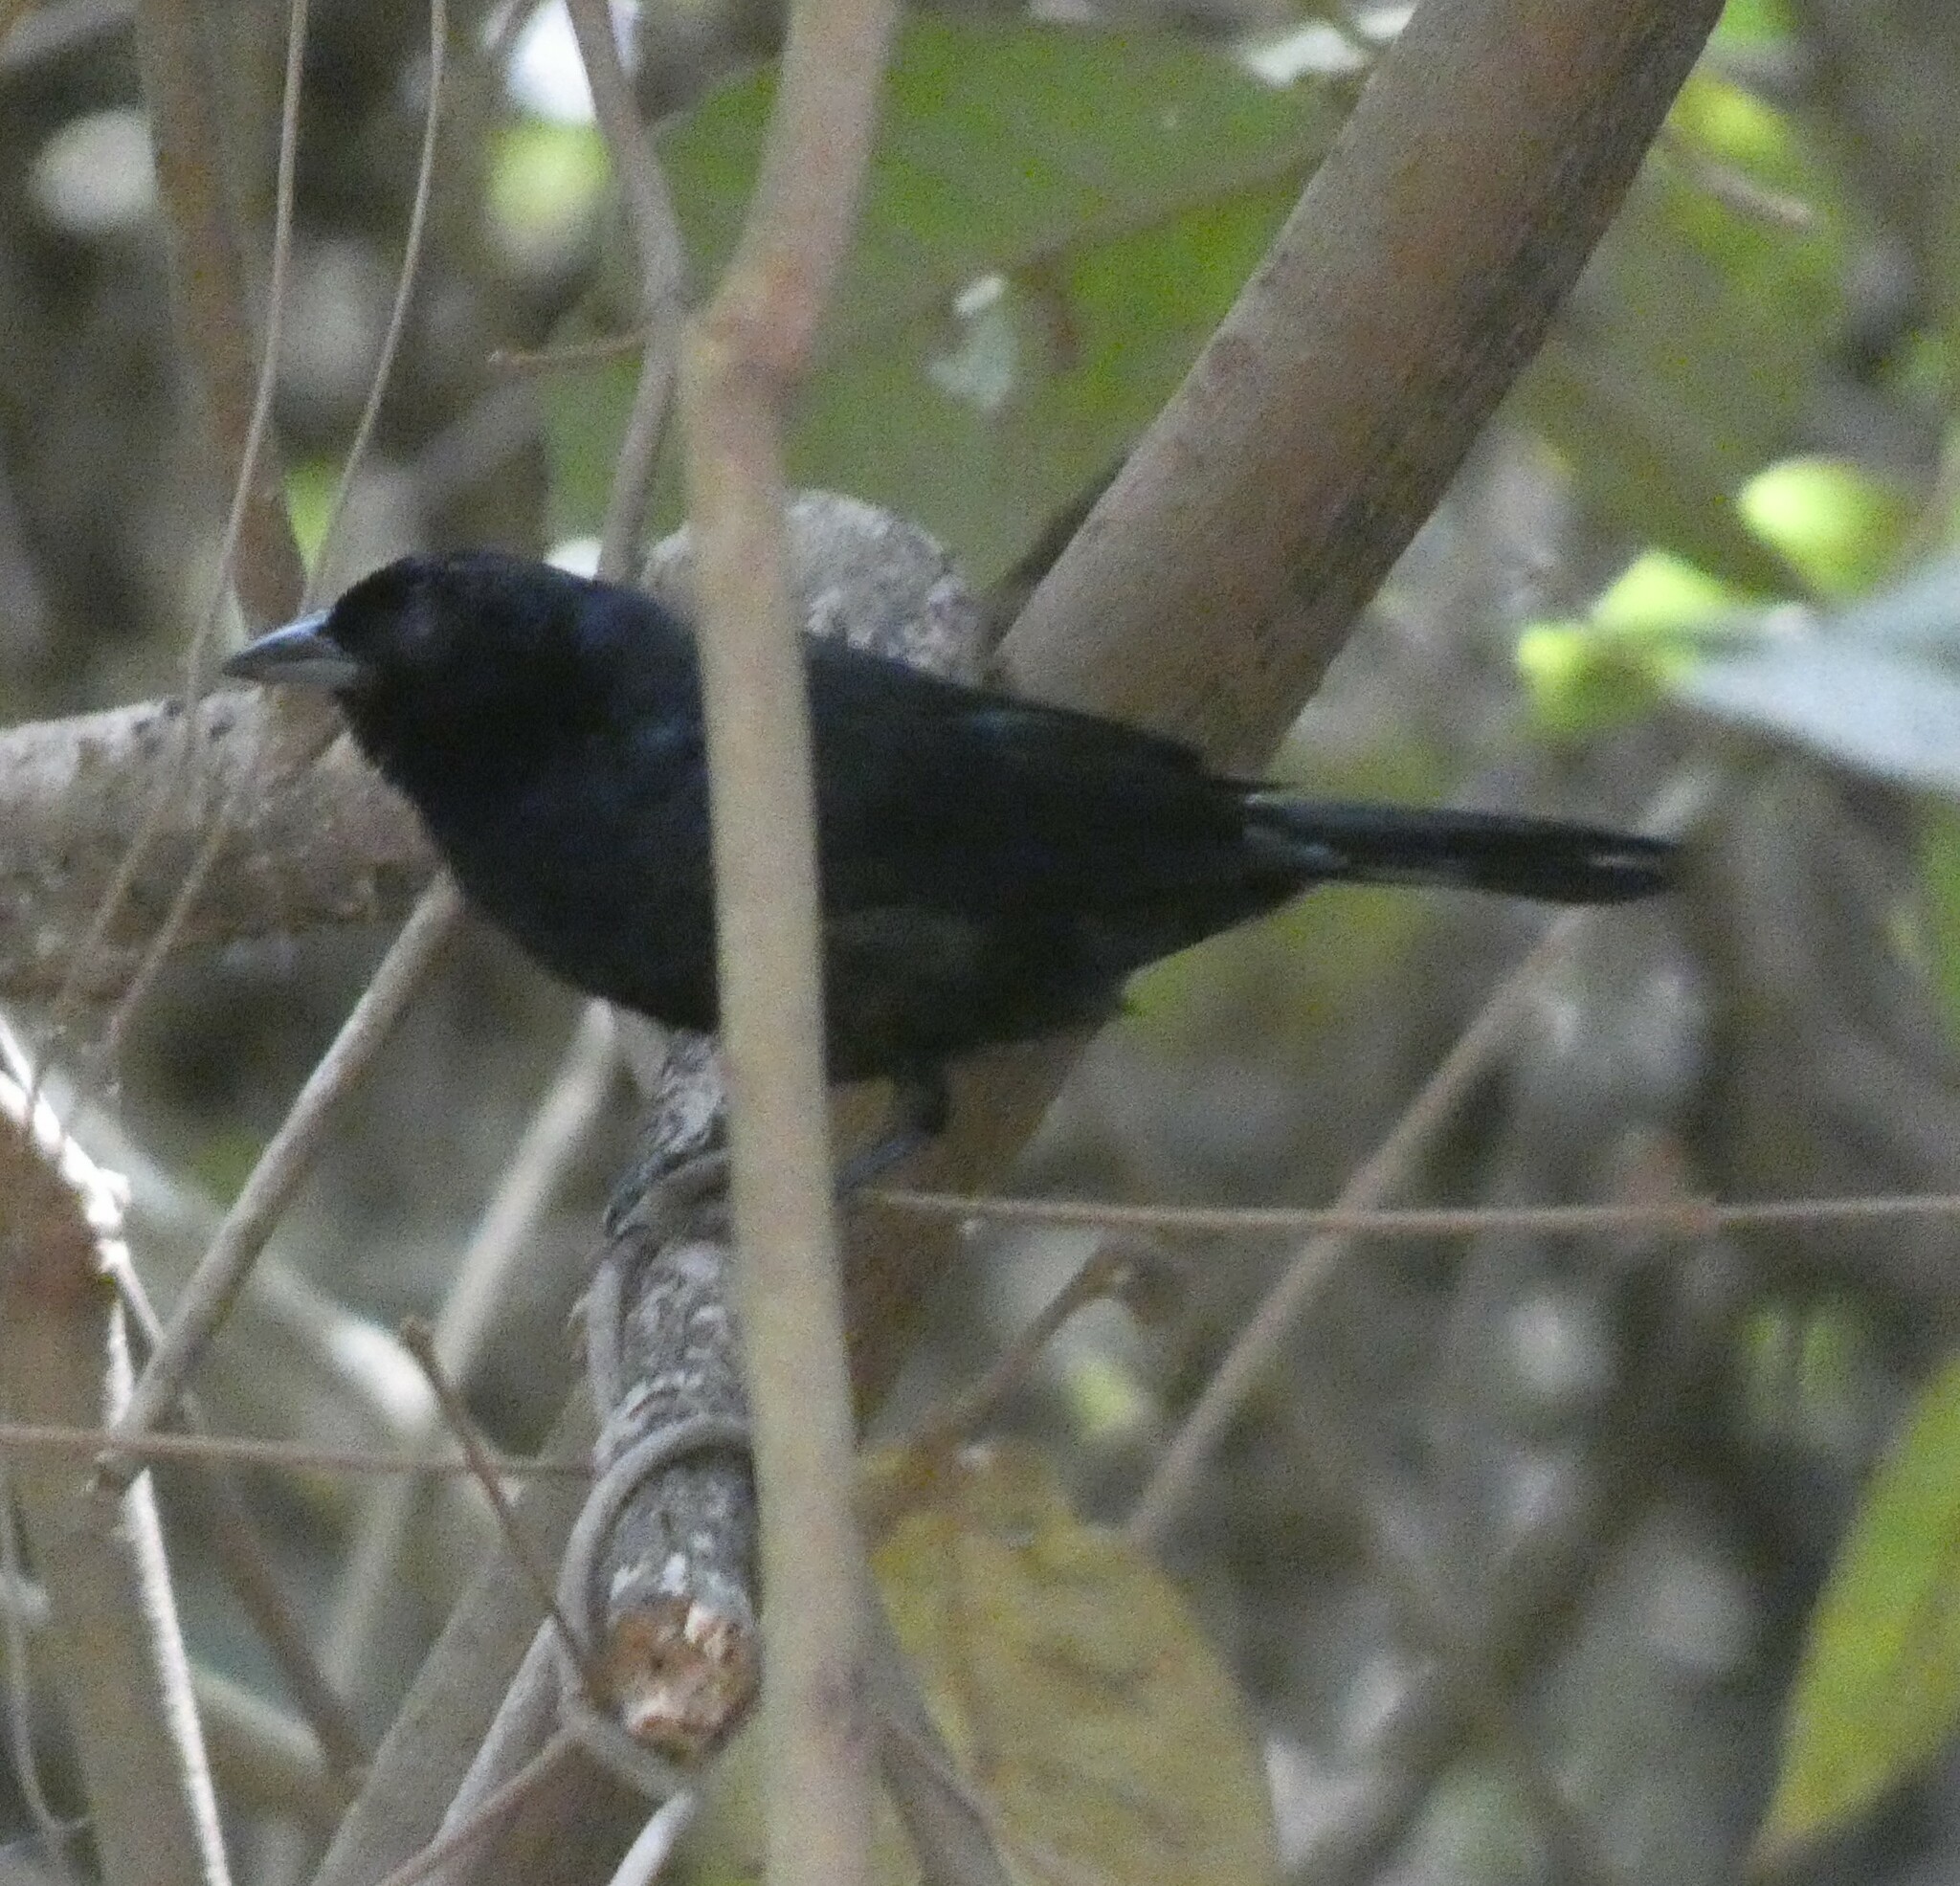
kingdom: Animalia
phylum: Chordata
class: Aves
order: Passeriformes
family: Thraupidae
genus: Tachyphonus
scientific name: Tachyphonus coronatus
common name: Ruby-crowned tanager
